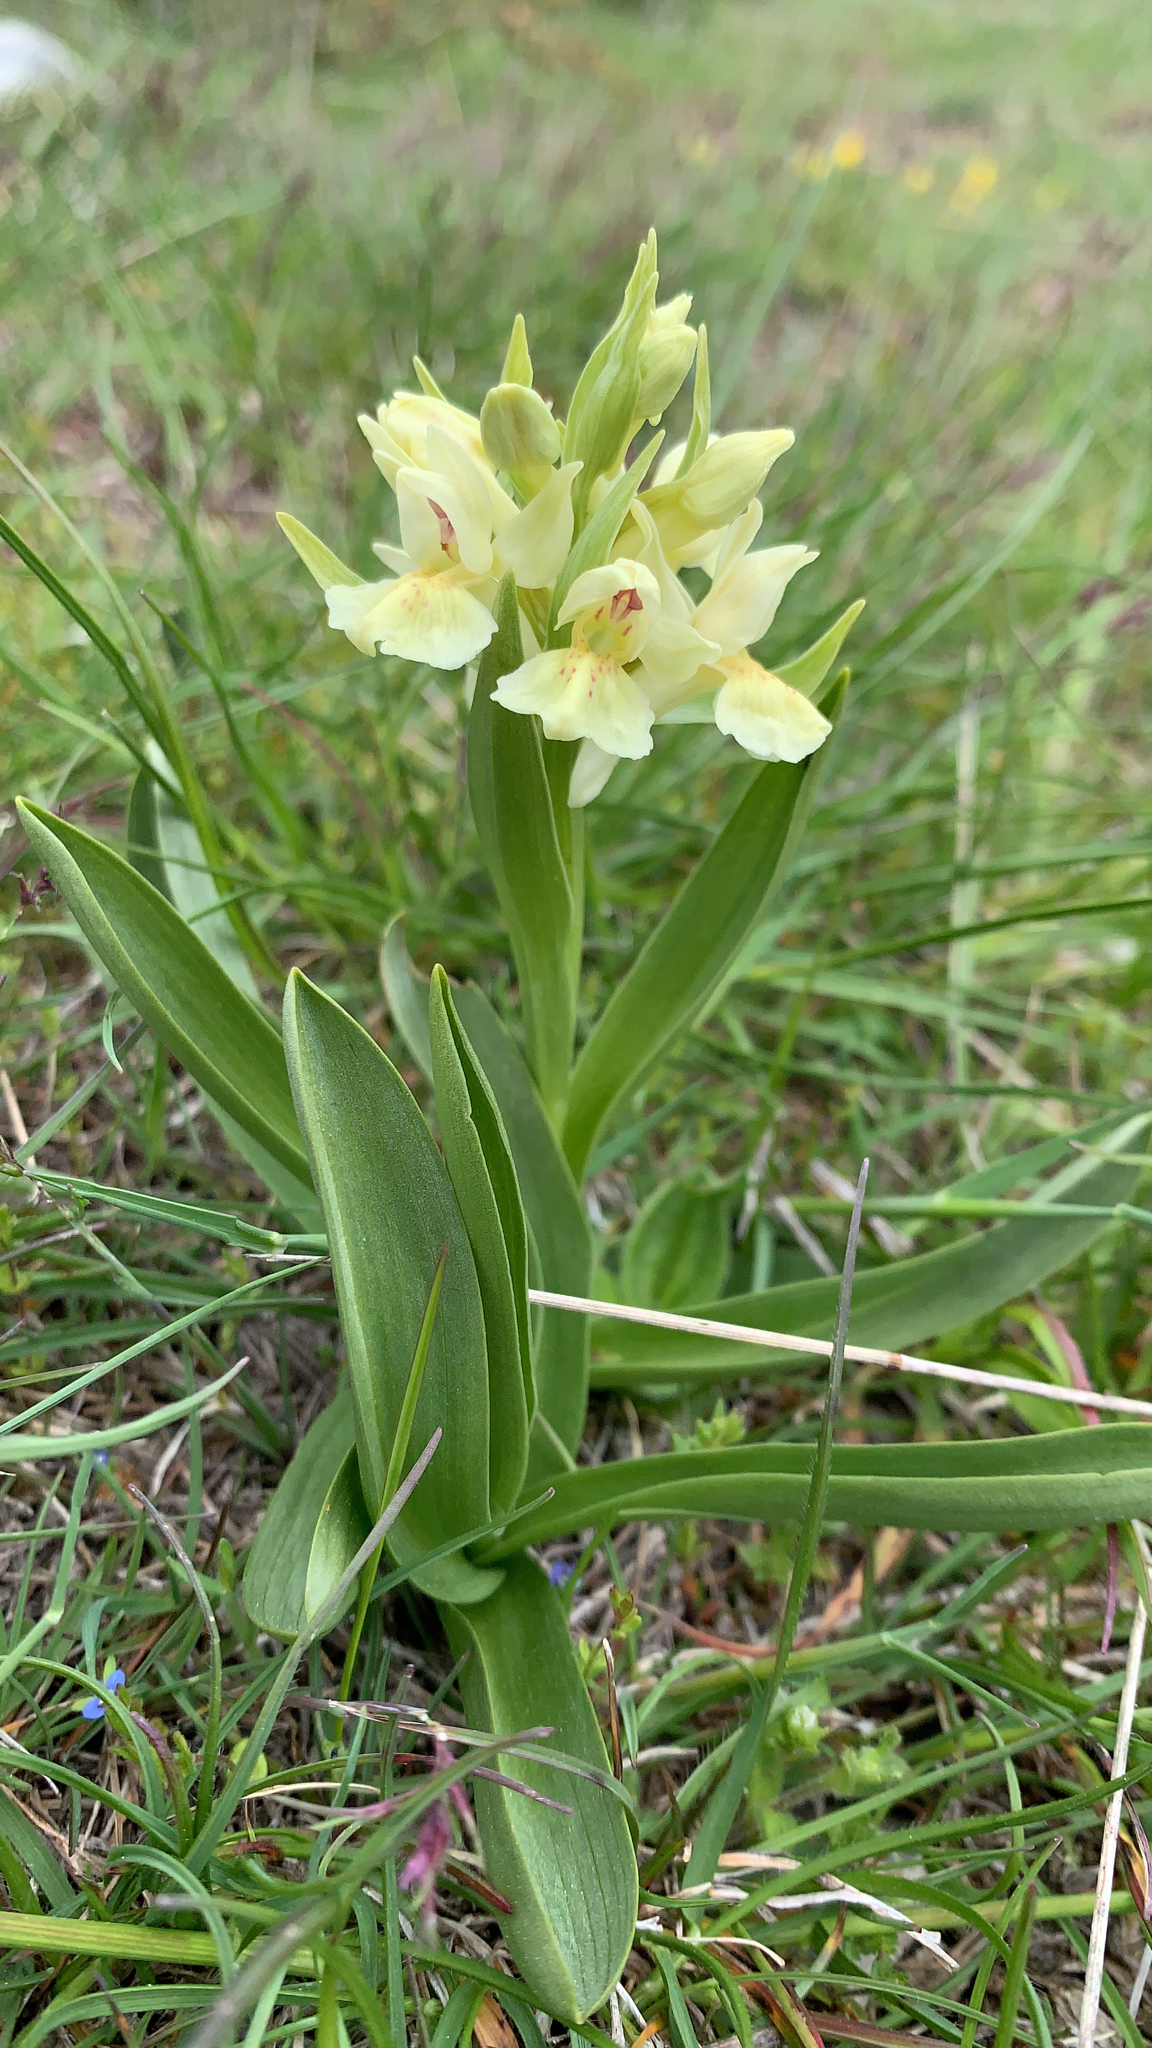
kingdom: Plantae
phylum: Tracheophyta
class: Liliopsida
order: Asparagales
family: Orchidaceae
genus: Dactylorhiza
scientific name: Dactylorhiza sambucina
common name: Elder-flowered orchid
